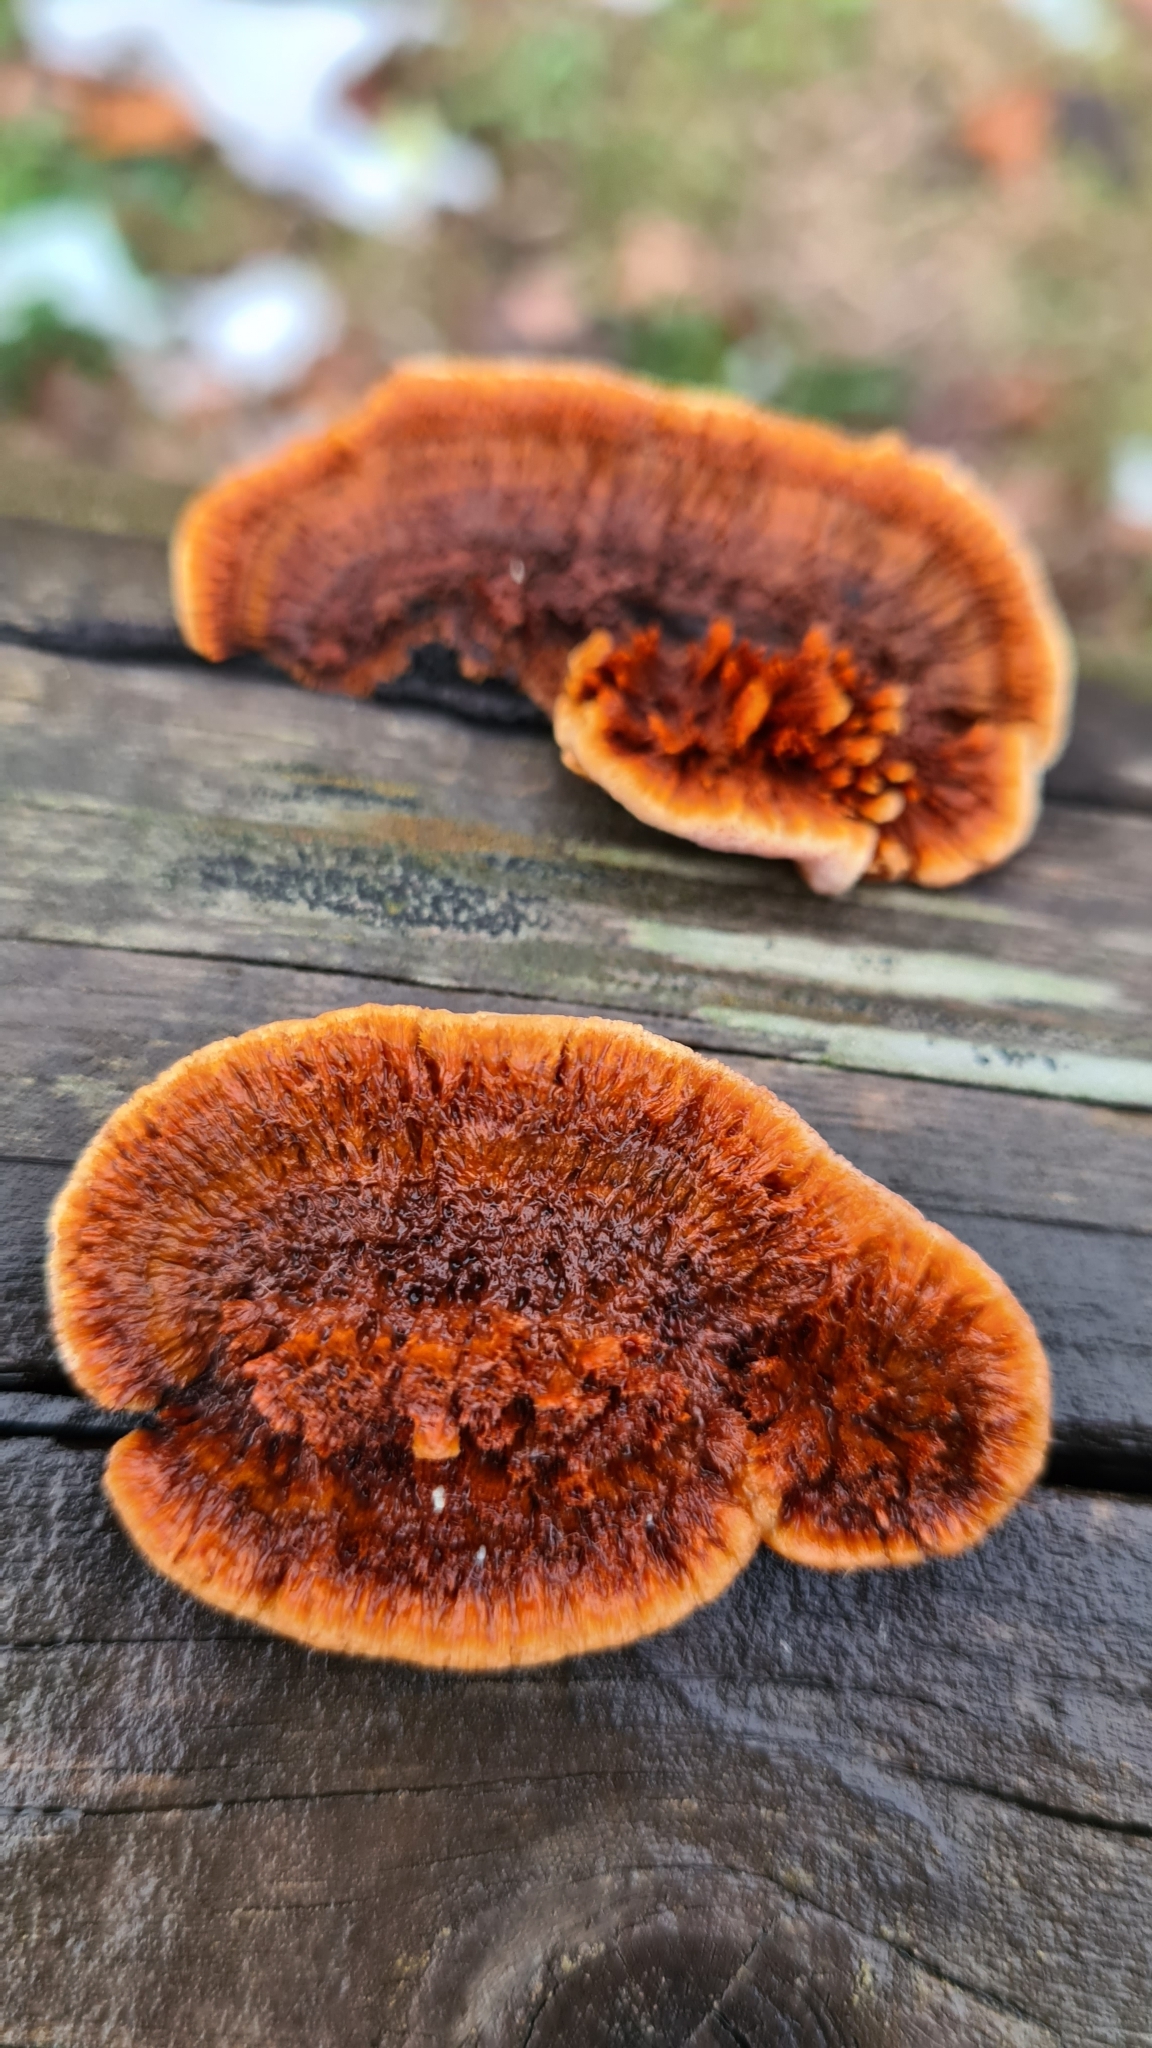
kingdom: Fungi
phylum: Basidiomycota
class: Agaricomycetes
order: Gloeophyllales
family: Gloeophyllaceae
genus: Gloeophyllum
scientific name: Gloeophyllum sepiarium
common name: Conifer mazegill
